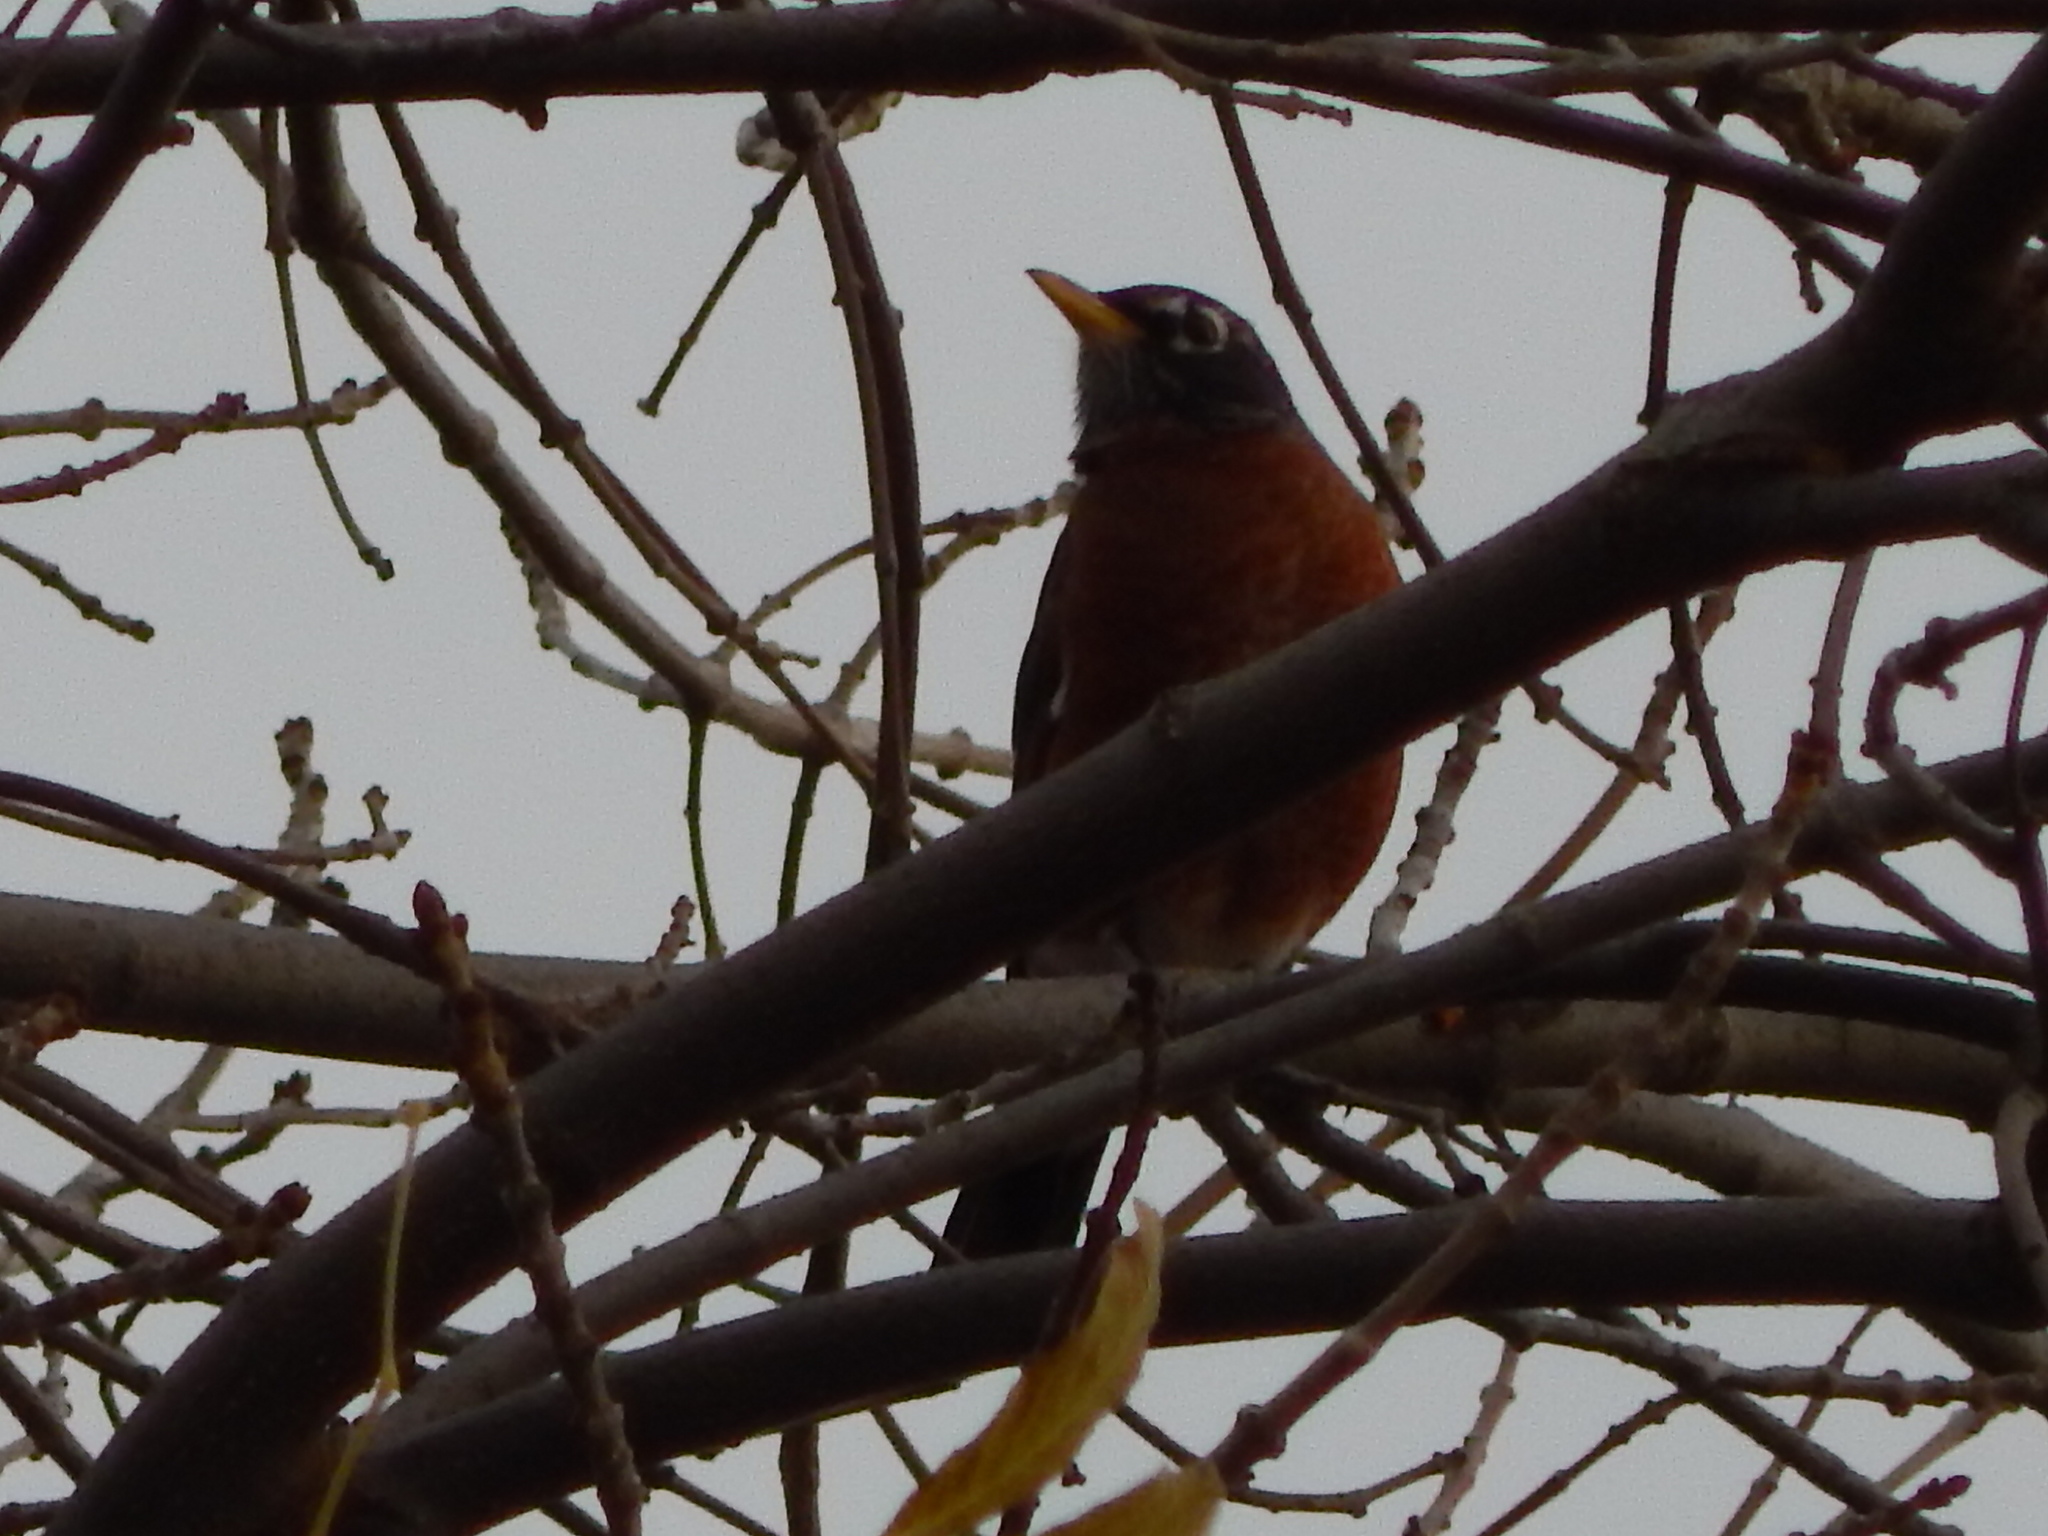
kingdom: Animalia
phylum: Chordata
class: Aves
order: Passeriformes
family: Turdidae
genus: Turdus
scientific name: Turdus migratorius
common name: American robin
